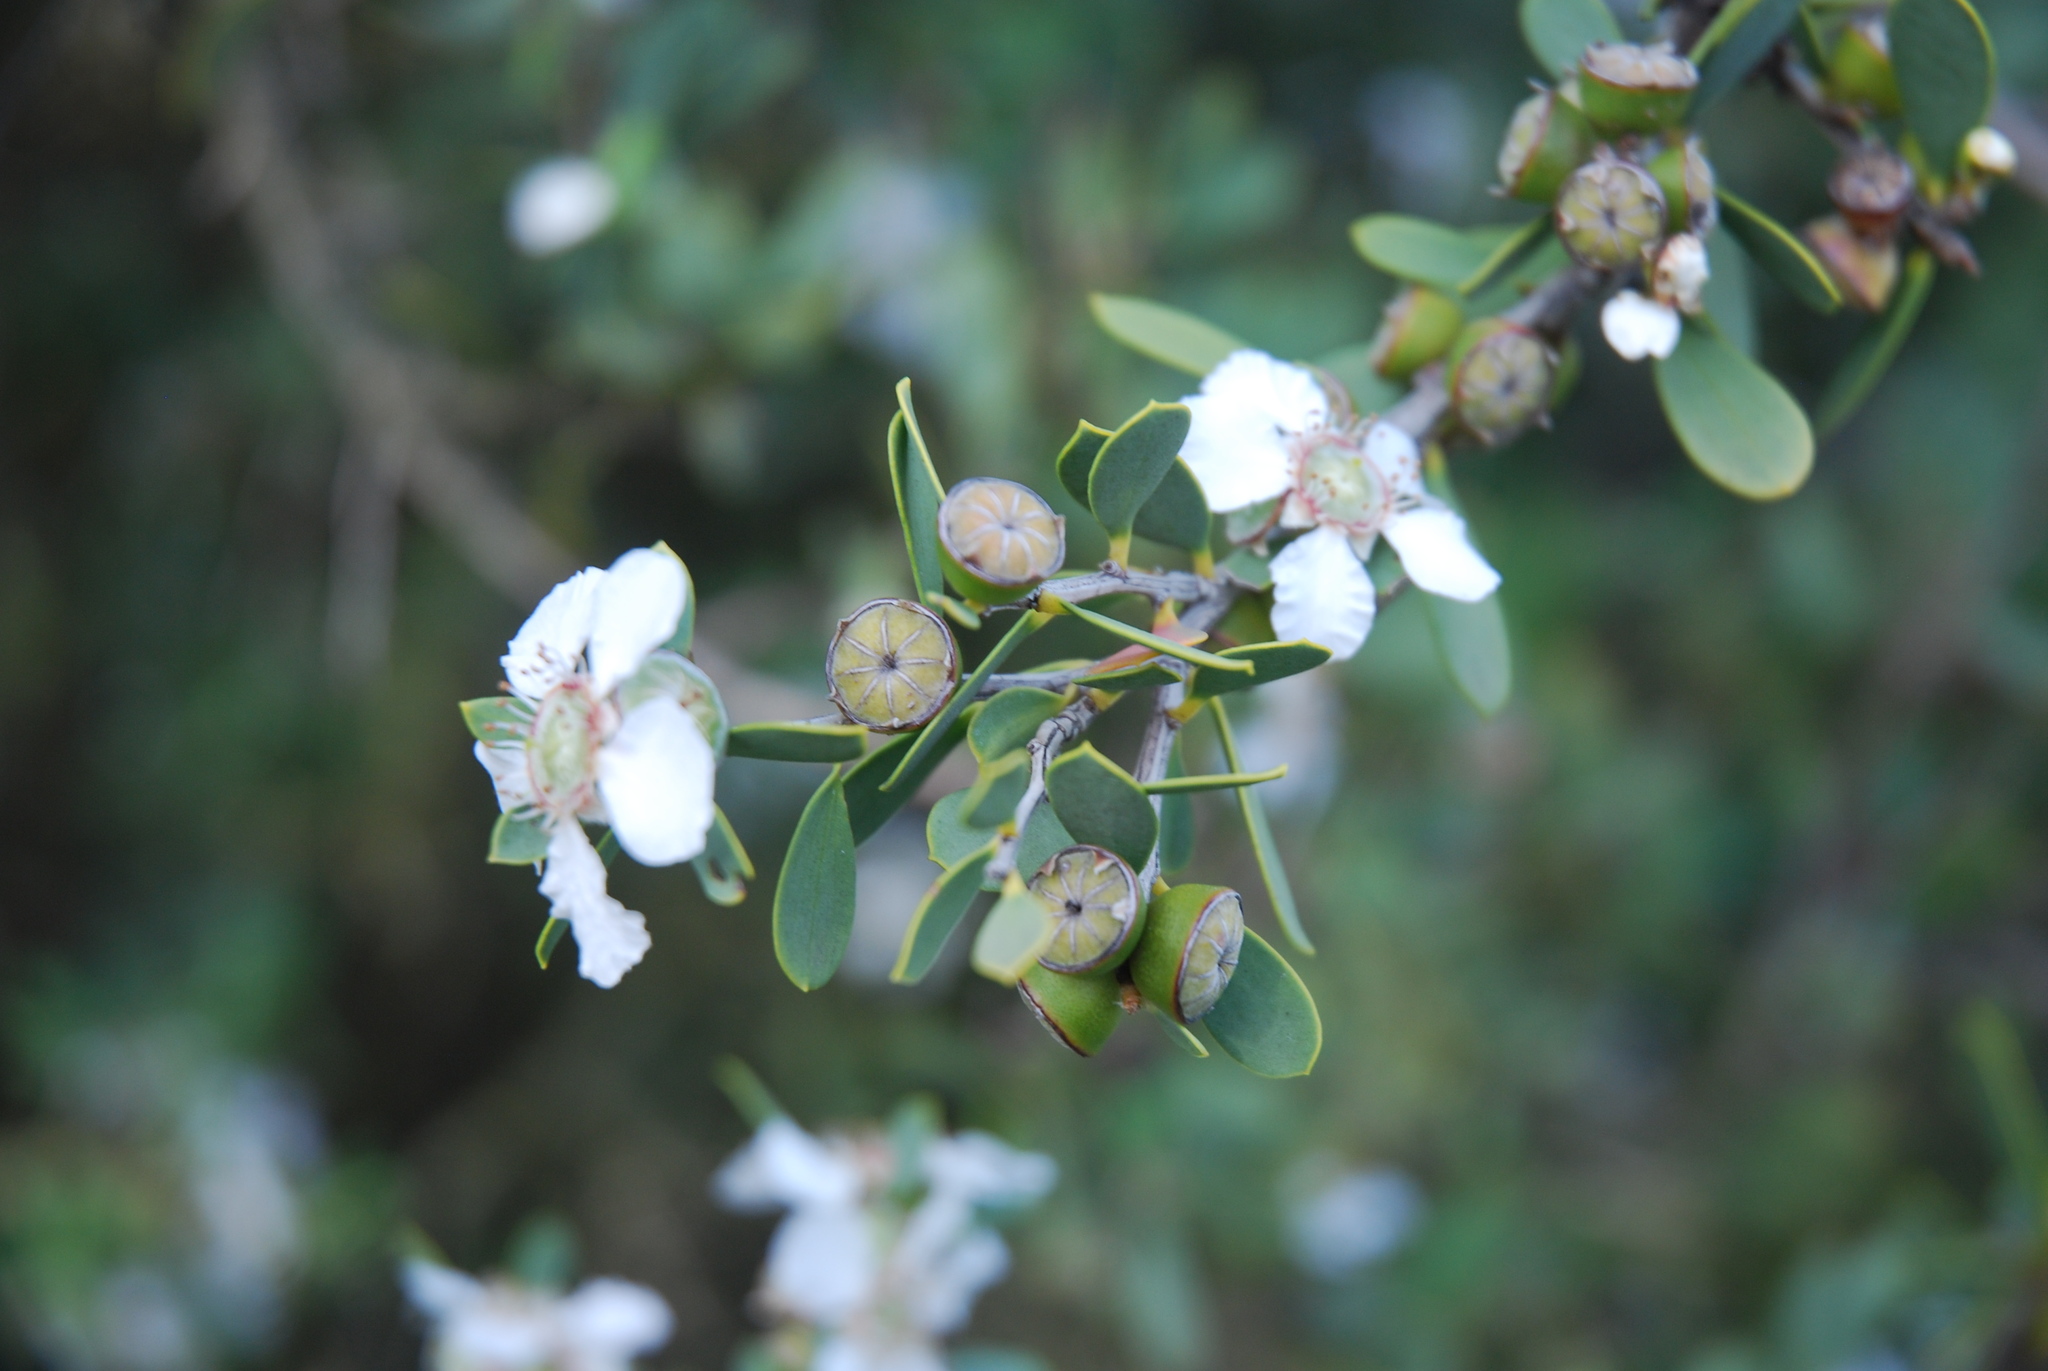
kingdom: Plantae
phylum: Tracheophyta
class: Magnoliopsida
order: Myrtales
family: Myrtaceae
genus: Leptospermum
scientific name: Leptospermum laevigatum
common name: Australian teatree
